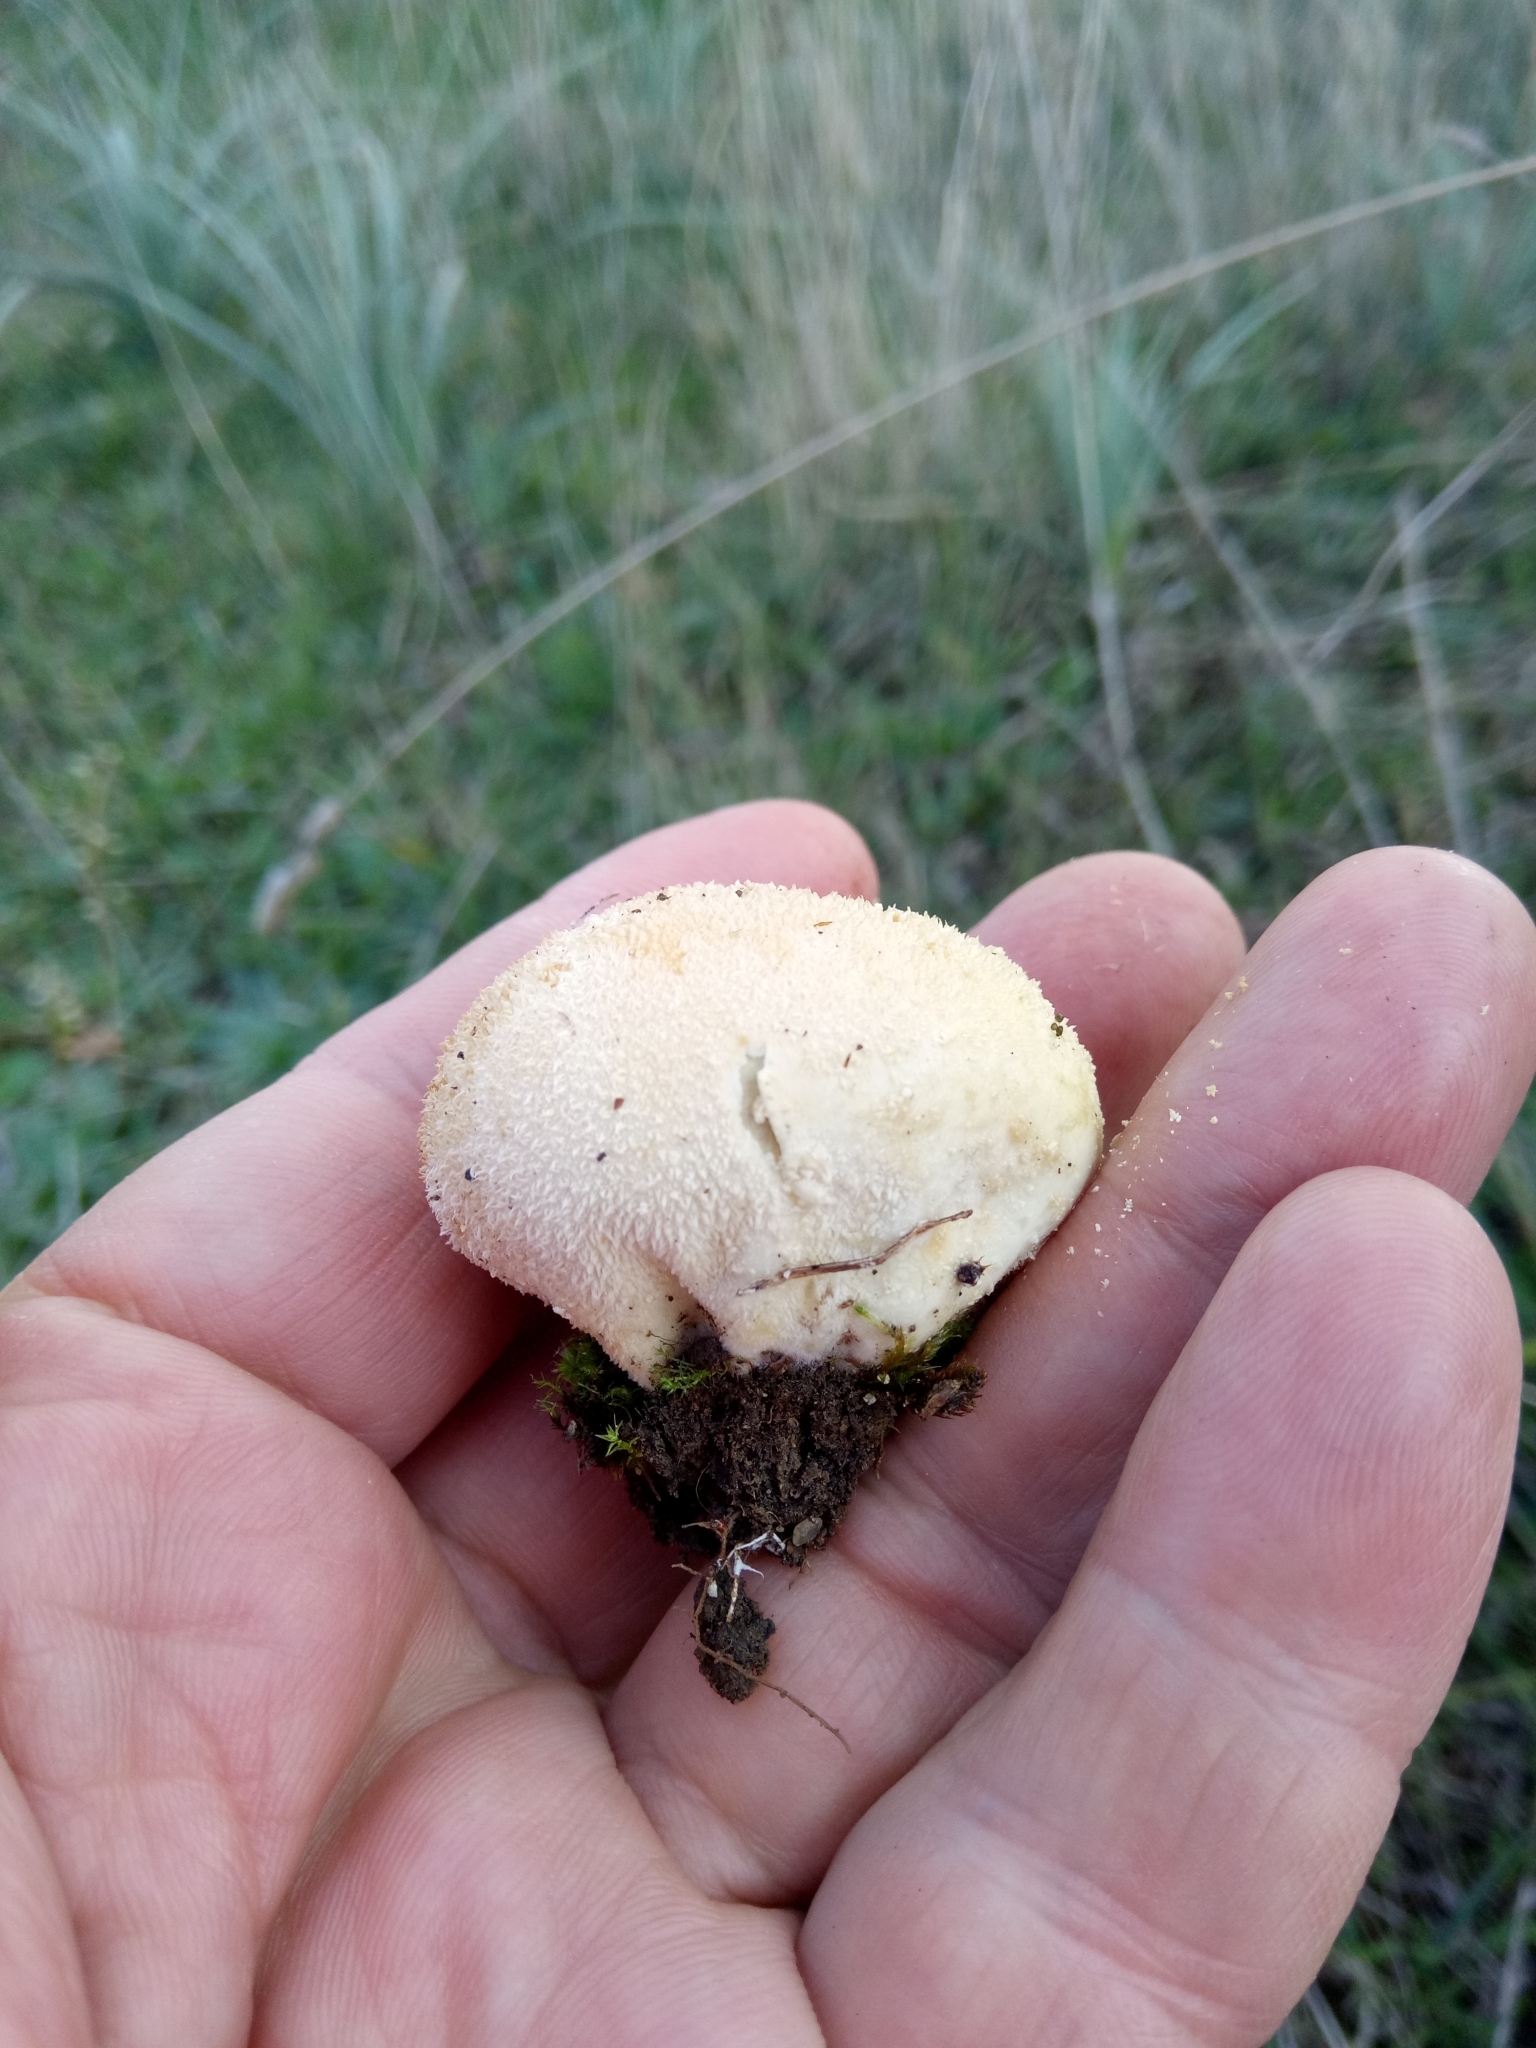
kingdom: Fungi
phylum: Basidiomycota
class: Agaricomycetes
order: Agaricales
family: Lycoperdaceae
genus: Lycoperdon
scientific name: Lycoperdon pratense
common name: Meadow puffball
